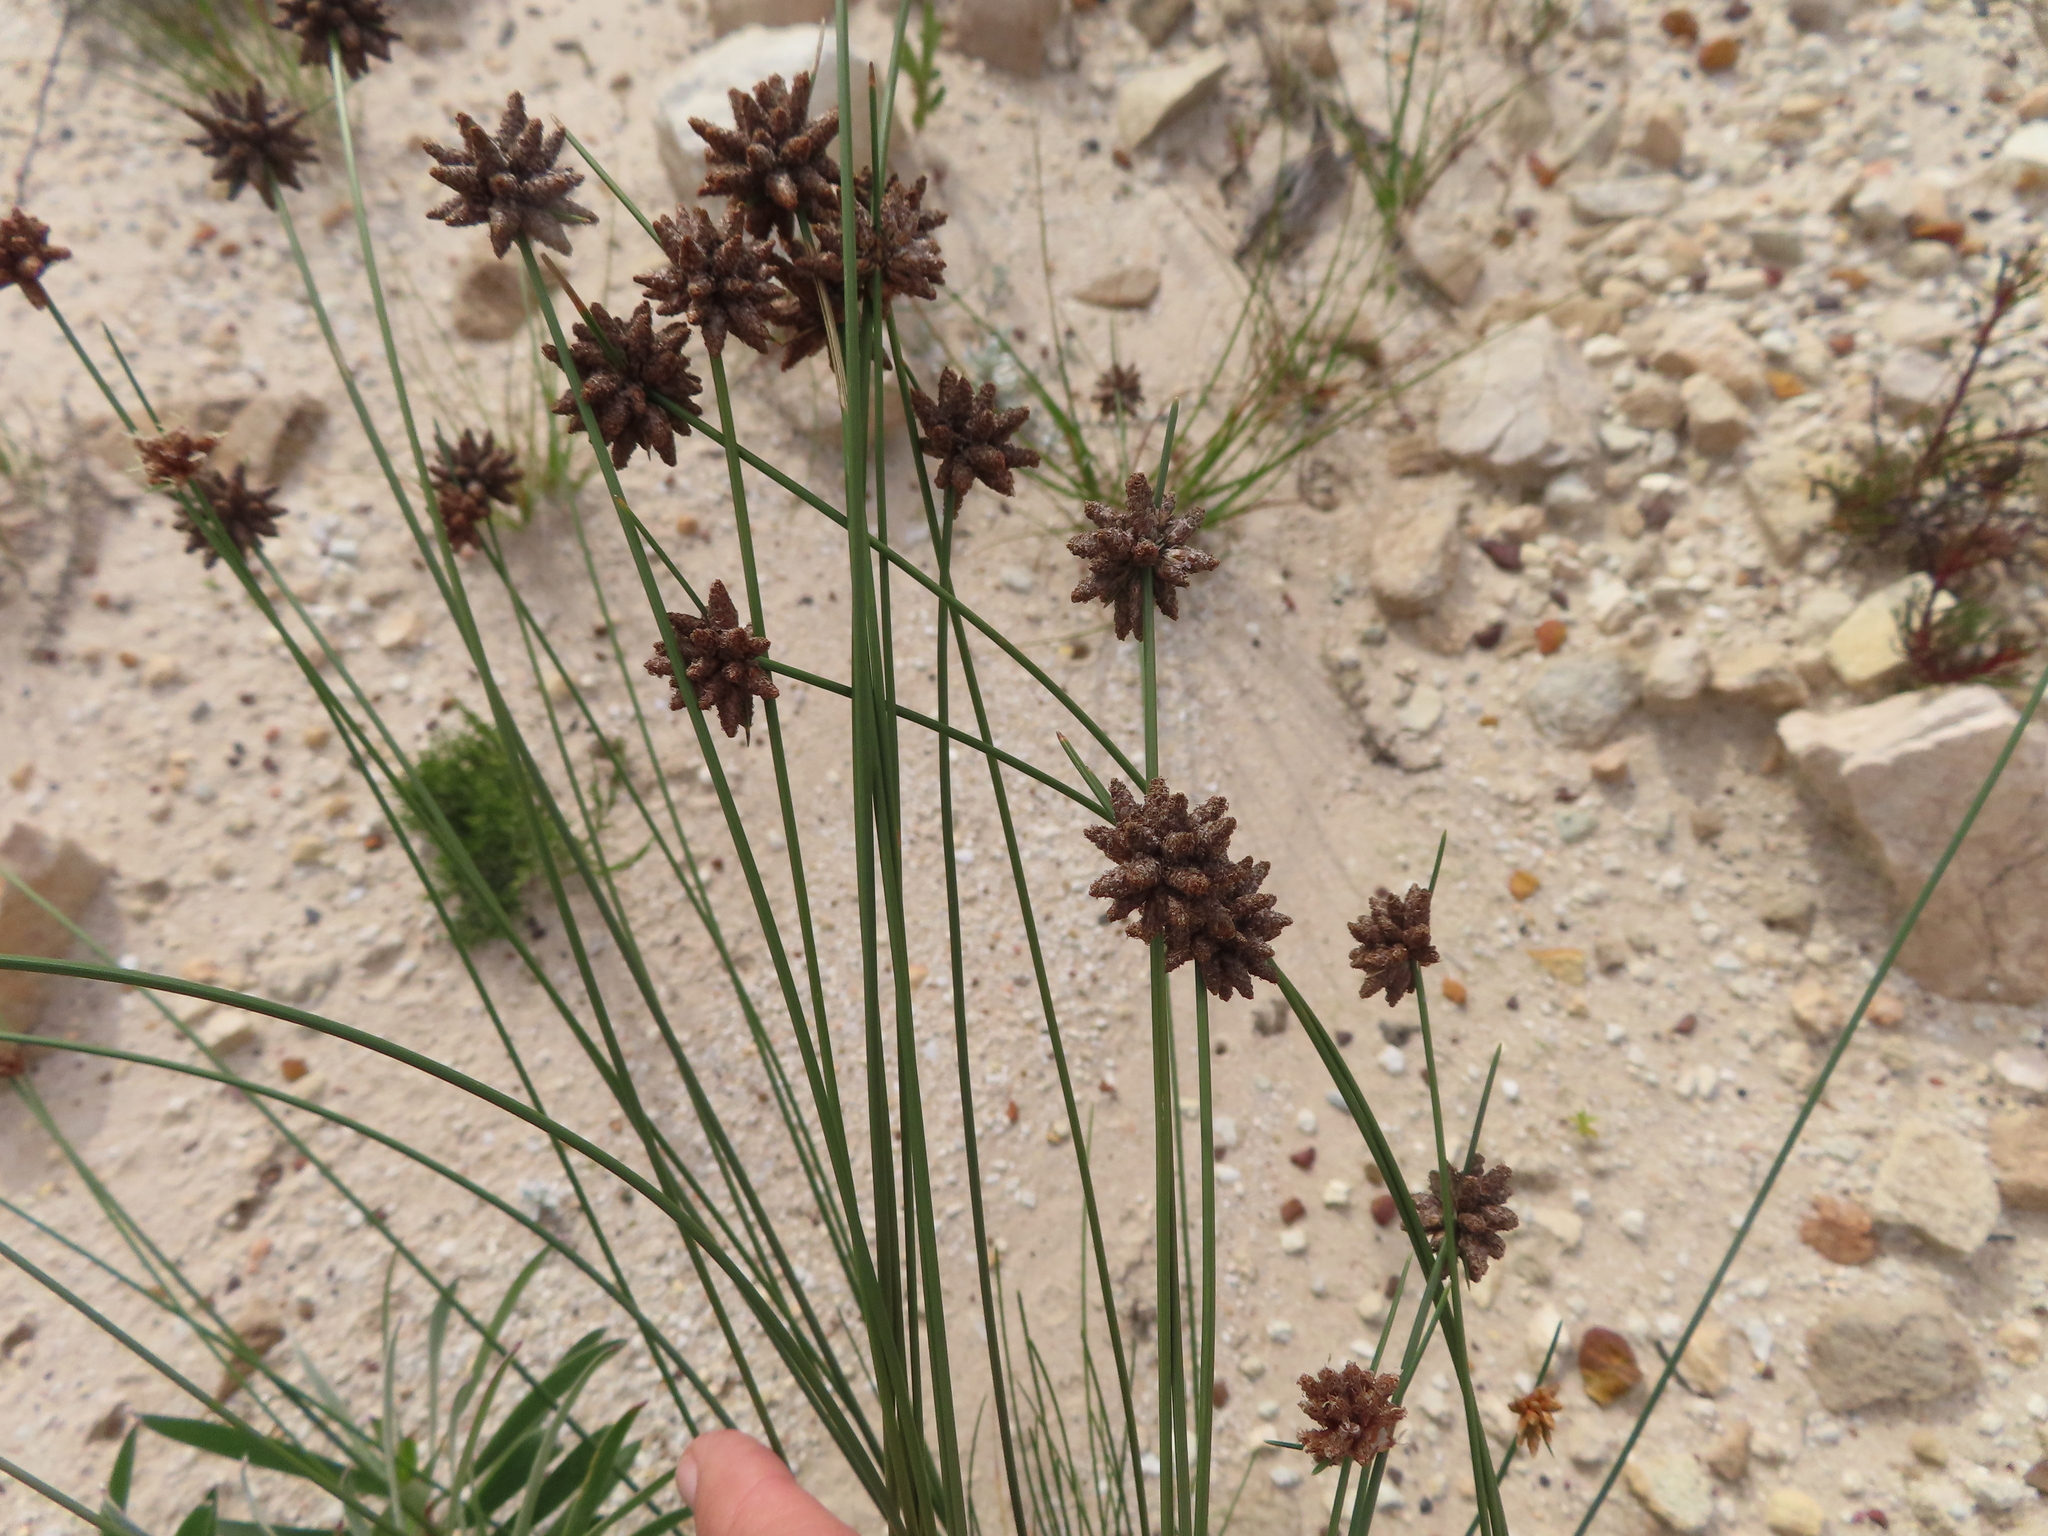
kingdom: Plantae
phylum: Tracheophyta
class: Liliopsida
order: Poales
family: Cyperaceae
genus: Ficinia
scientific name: Ficinia ecklonea
